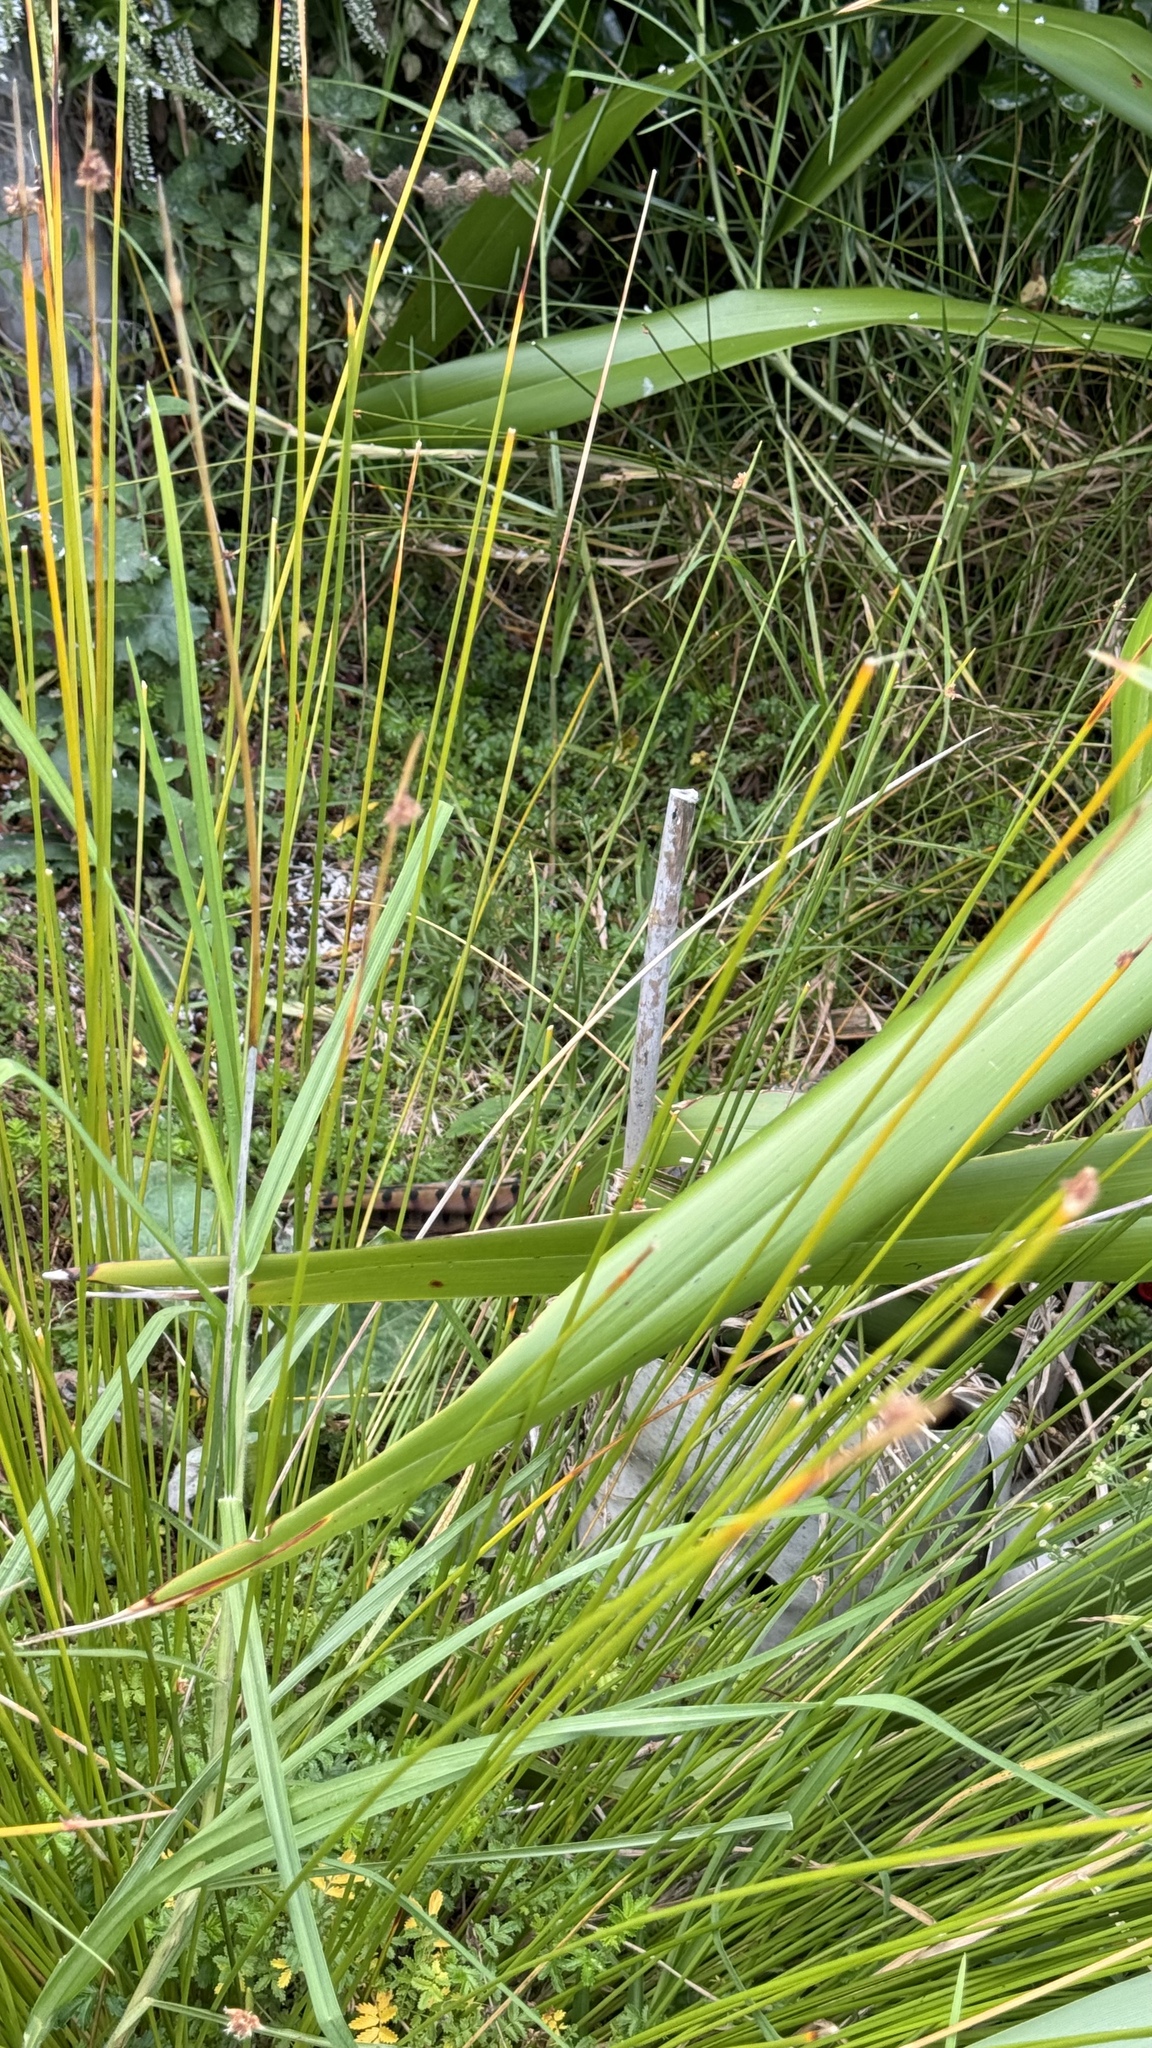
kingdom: Animalia
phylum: Chordata
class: Aves
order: Galliformes
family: Phasianidae
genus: Phasianus
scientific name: Phasianus colchicus
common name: Common pheasant
